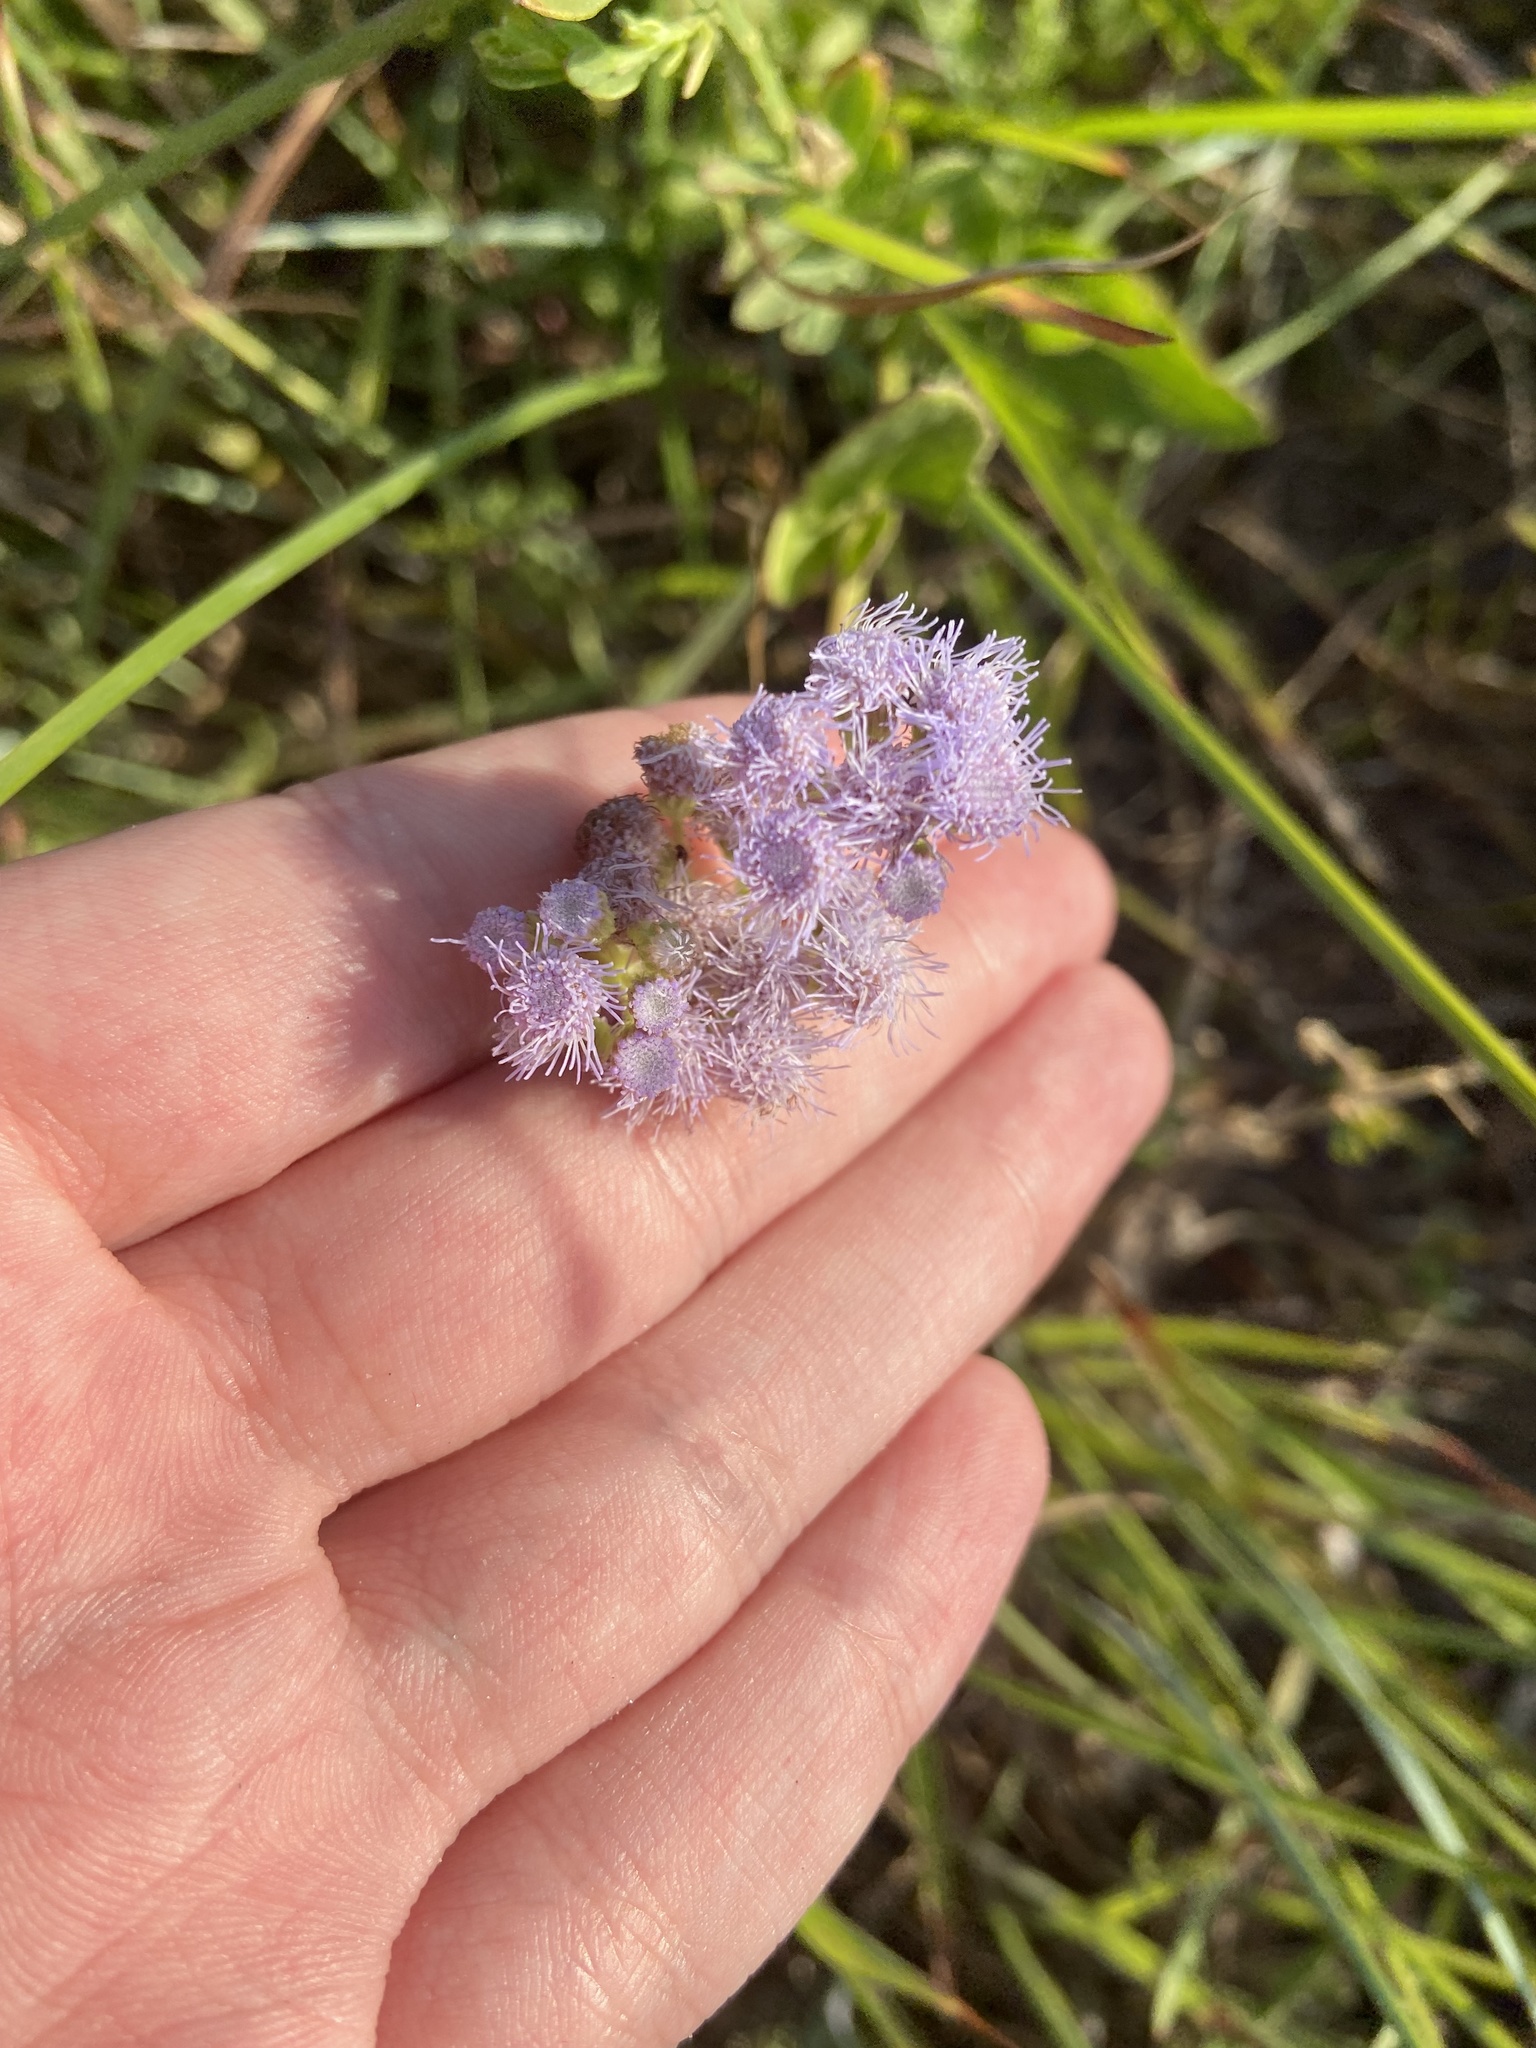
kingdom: Plantae
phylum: Tracheophyta
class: Magnoliopsida
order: Asterales
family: Asteraceae
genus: Conoclinium
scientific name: Conoclinium betonicifolium
